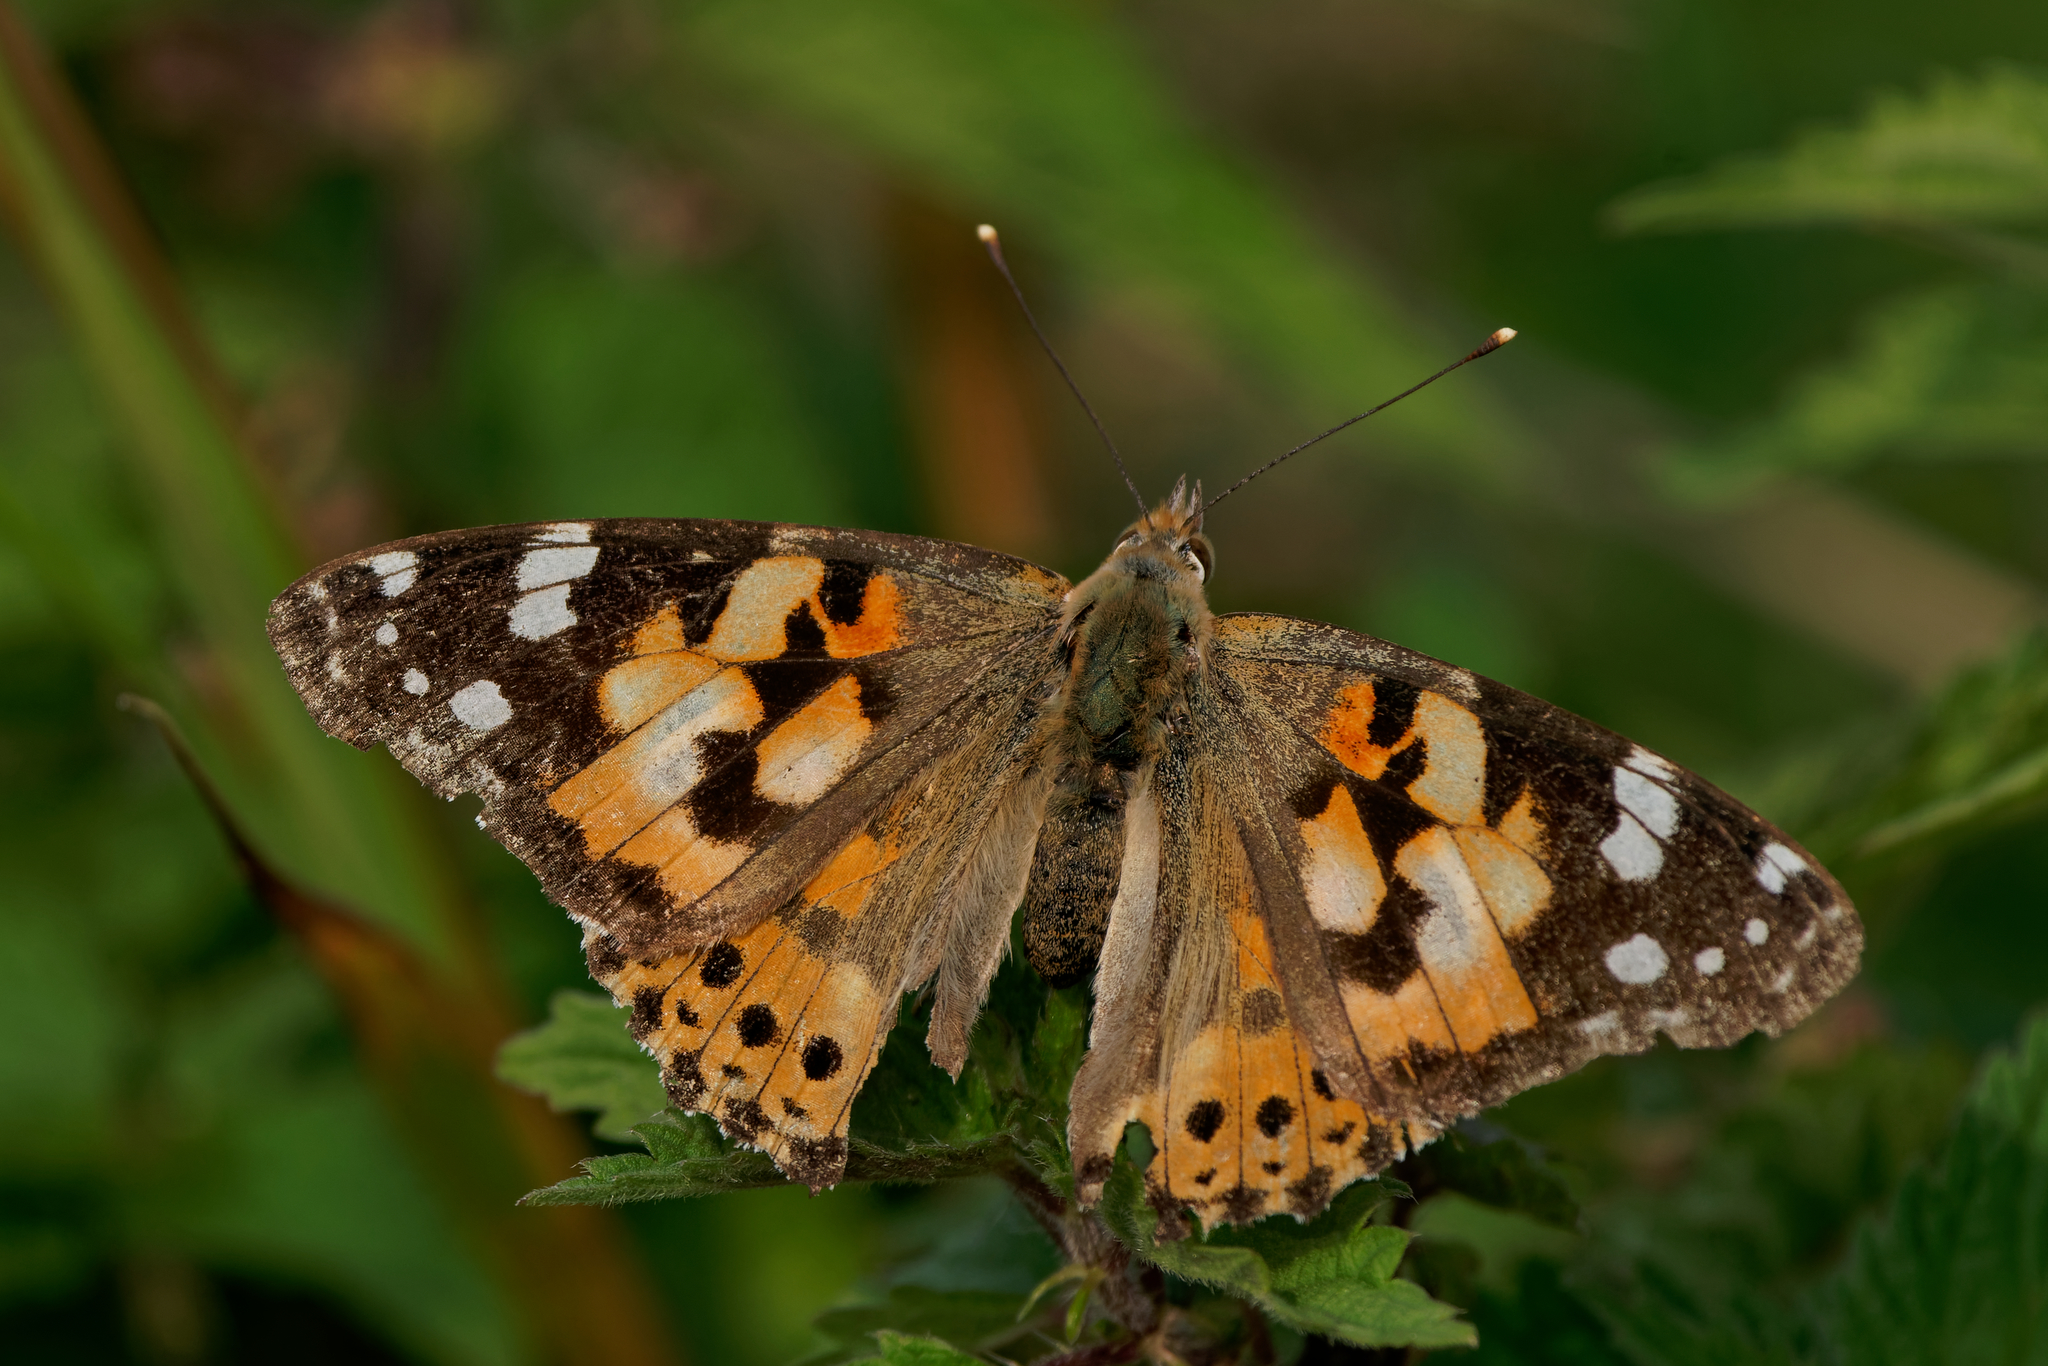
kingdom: Animalia
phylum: Arthropoda
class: Insecta
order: Lepidoptera
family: Nymphalidae
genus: Vanessa
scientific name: Vanessa cardui
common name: Painted lady
